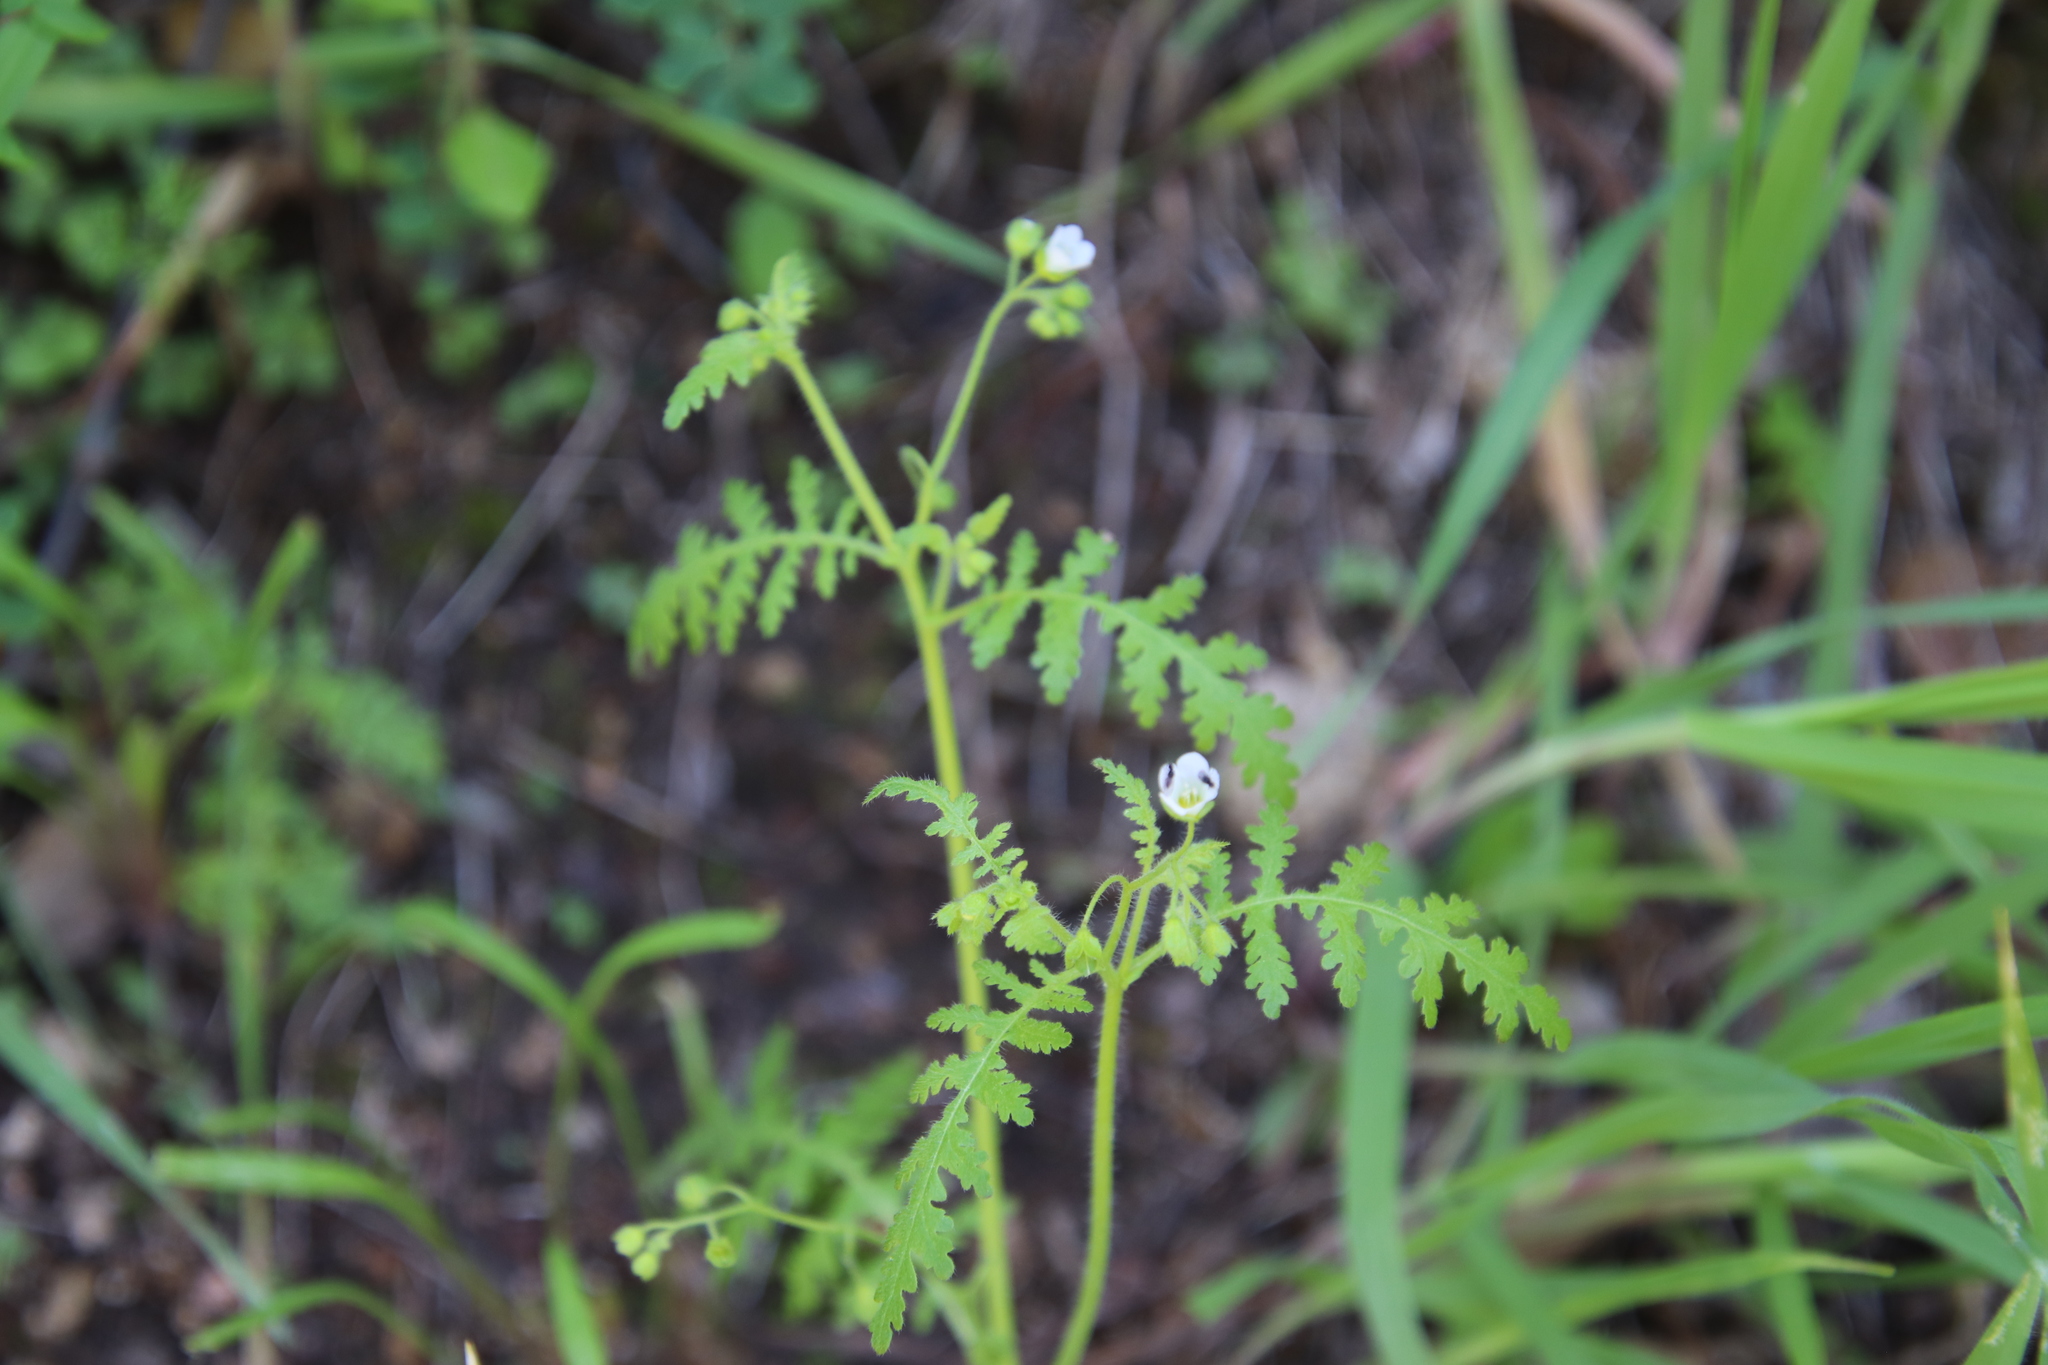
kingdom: Plantae
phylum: Tracheophyta
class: Magnoliopsida
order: Boraginales
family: Hydrophyllaceae
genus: Eucrypta
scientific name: Eucrypta chrysanthemifolia
